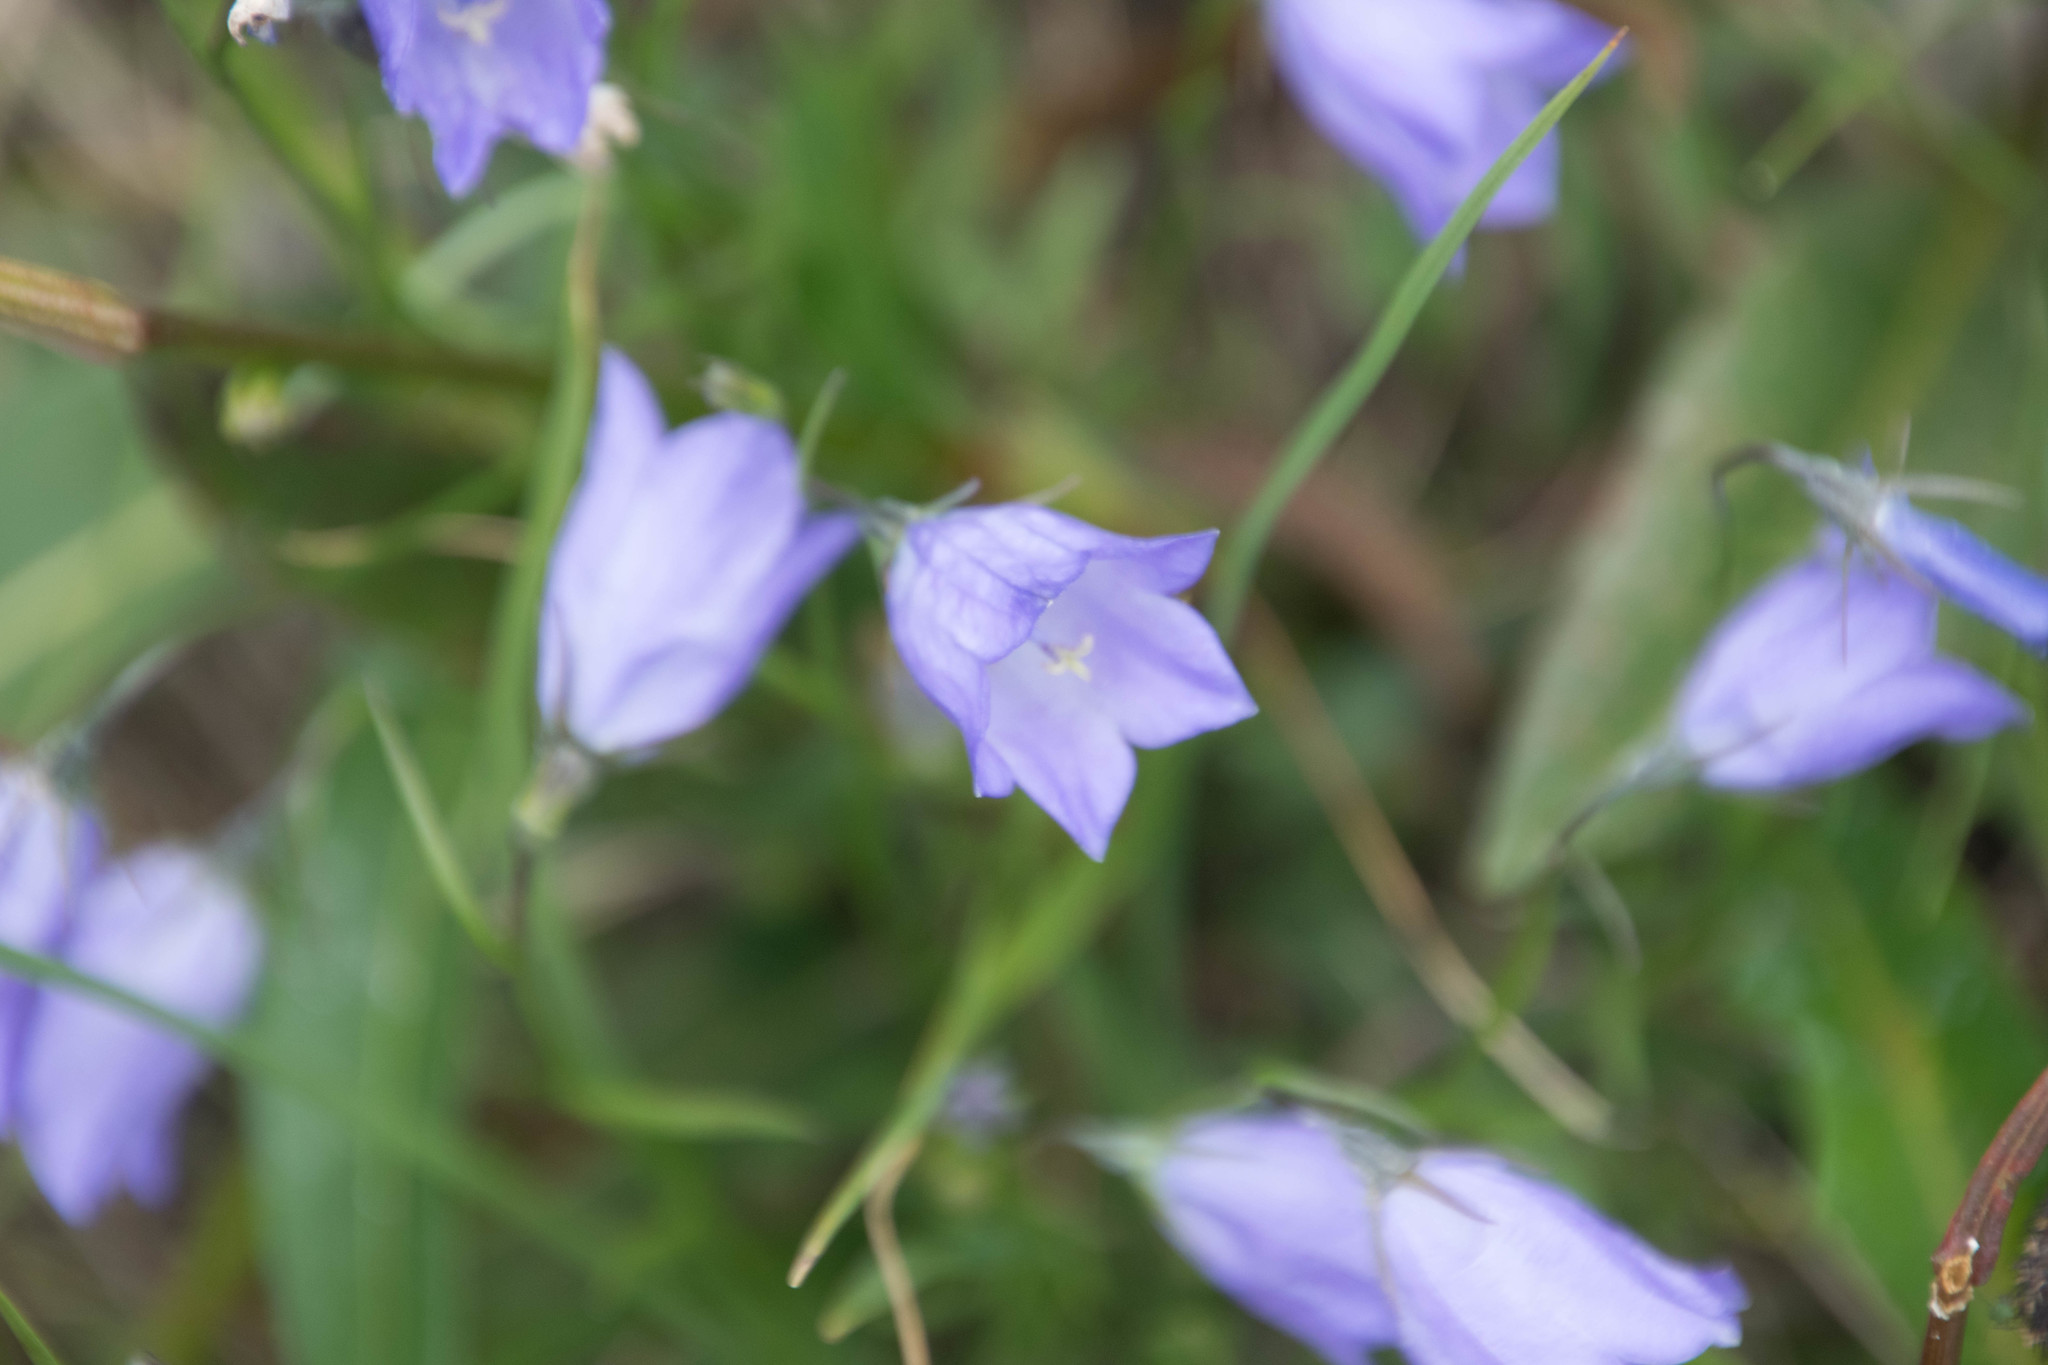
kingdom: Plantae
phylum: Tracheophyta
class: Magnoliopsida
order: Asterales
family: Campanulaceae
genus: Campanula
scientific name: Campanula petiolata
